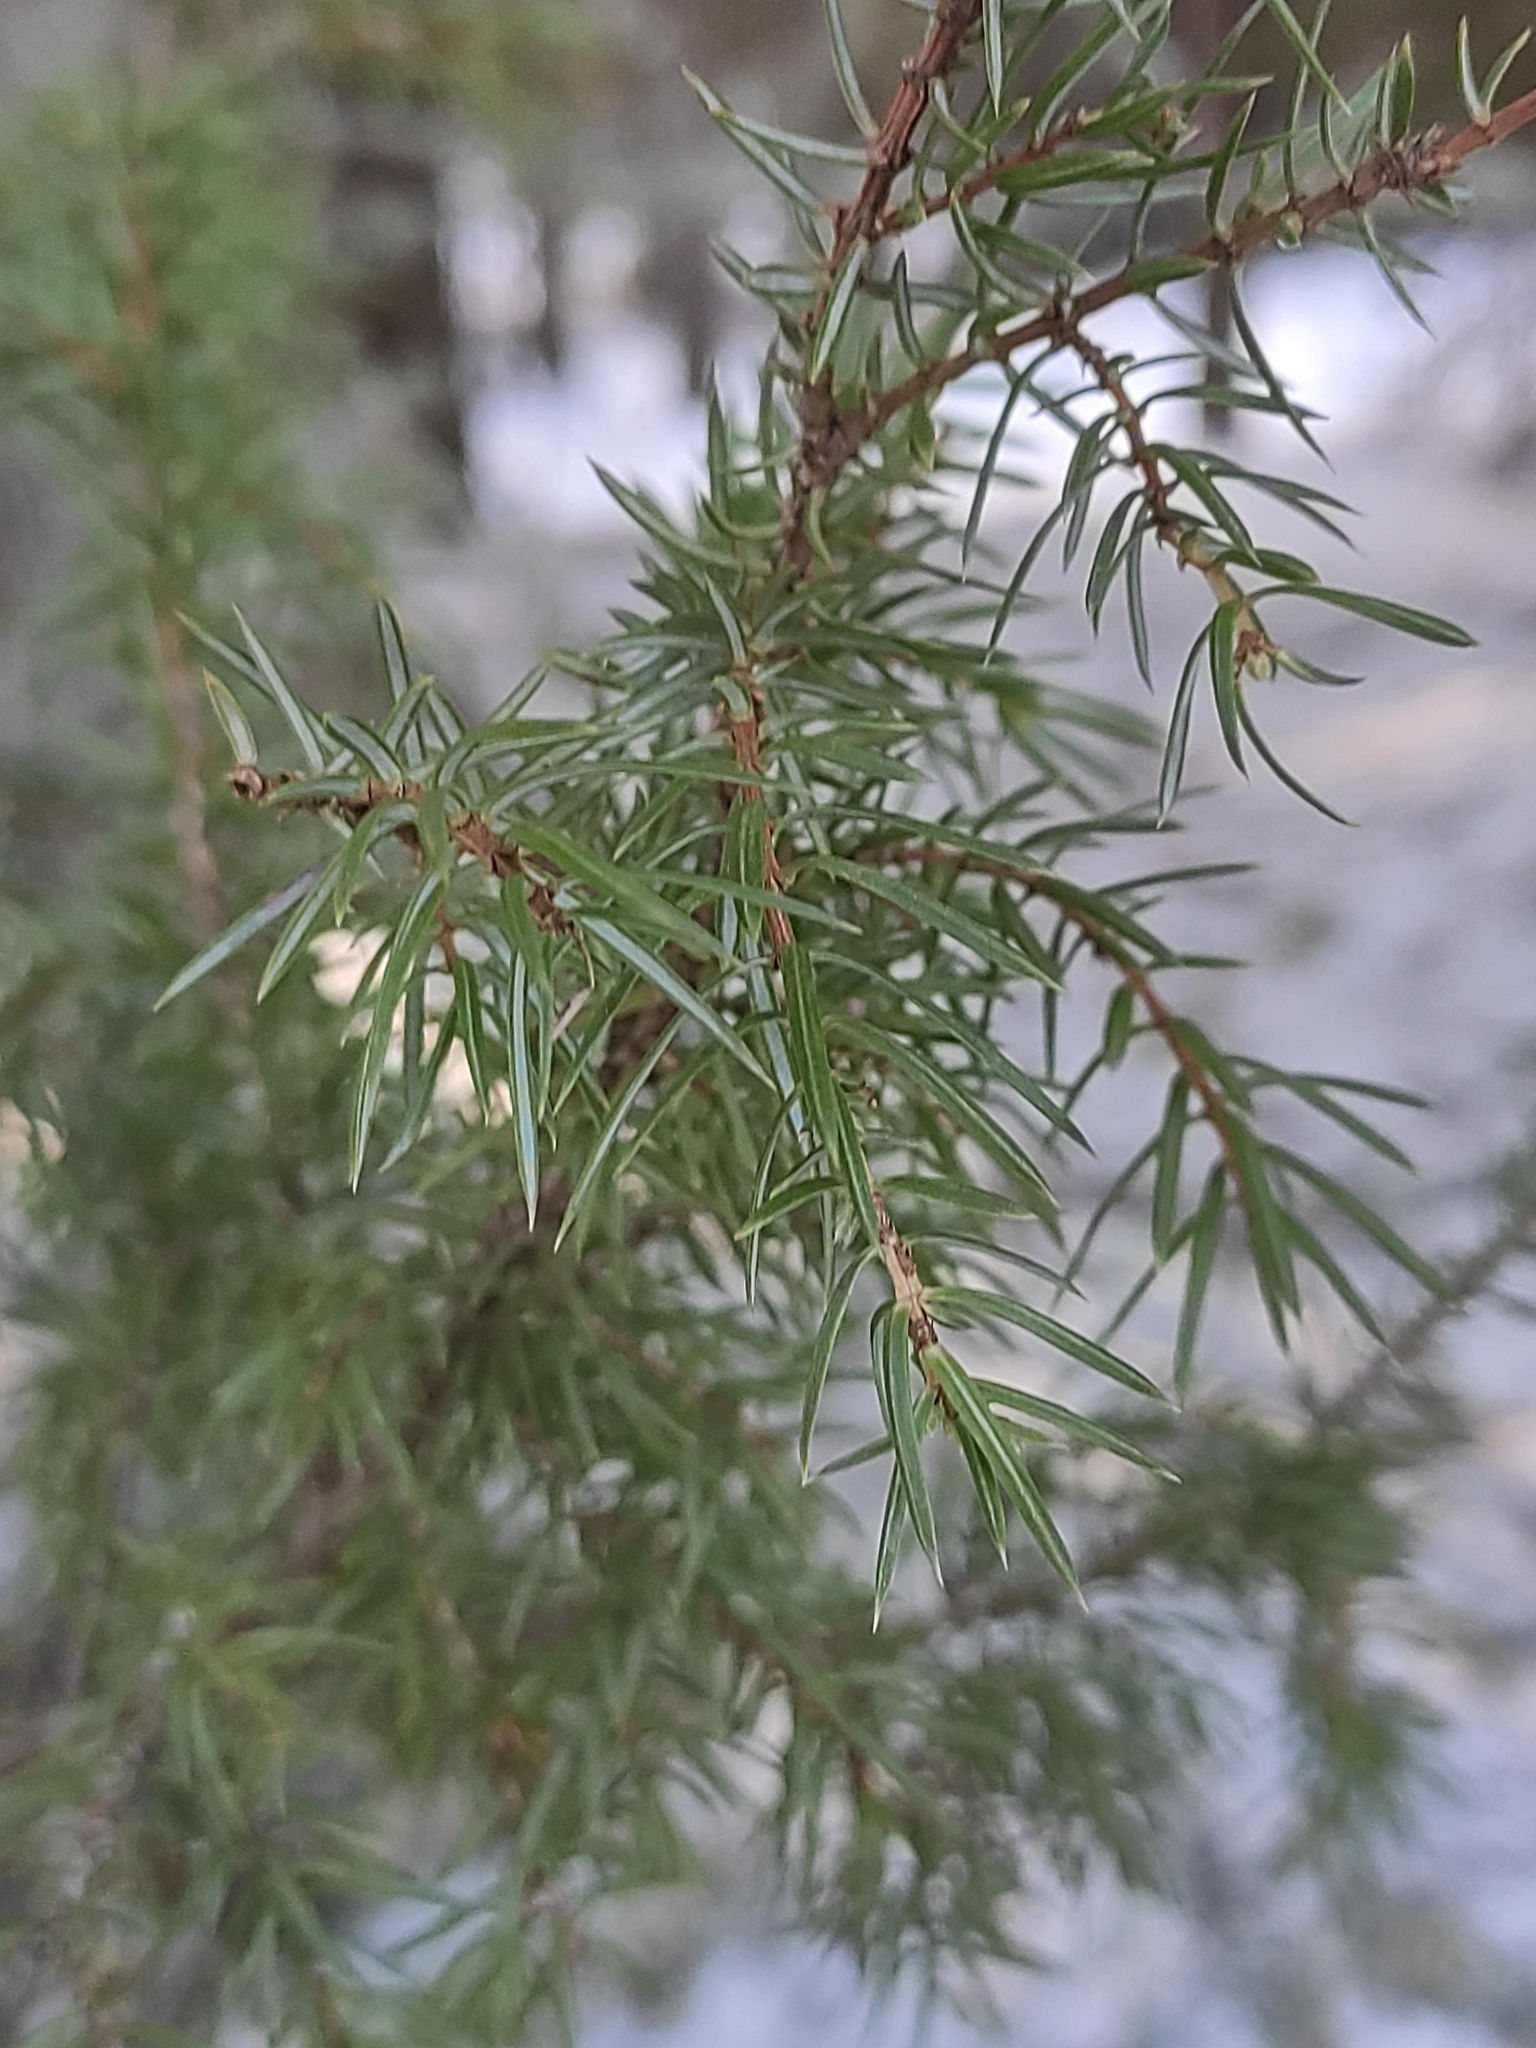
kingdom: Plantae
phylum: Tracheophyta
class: Pinopsida
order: Pinales
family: Cupressaceae
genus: Juniperus
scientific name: Juniperus communis
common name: Common juniper
